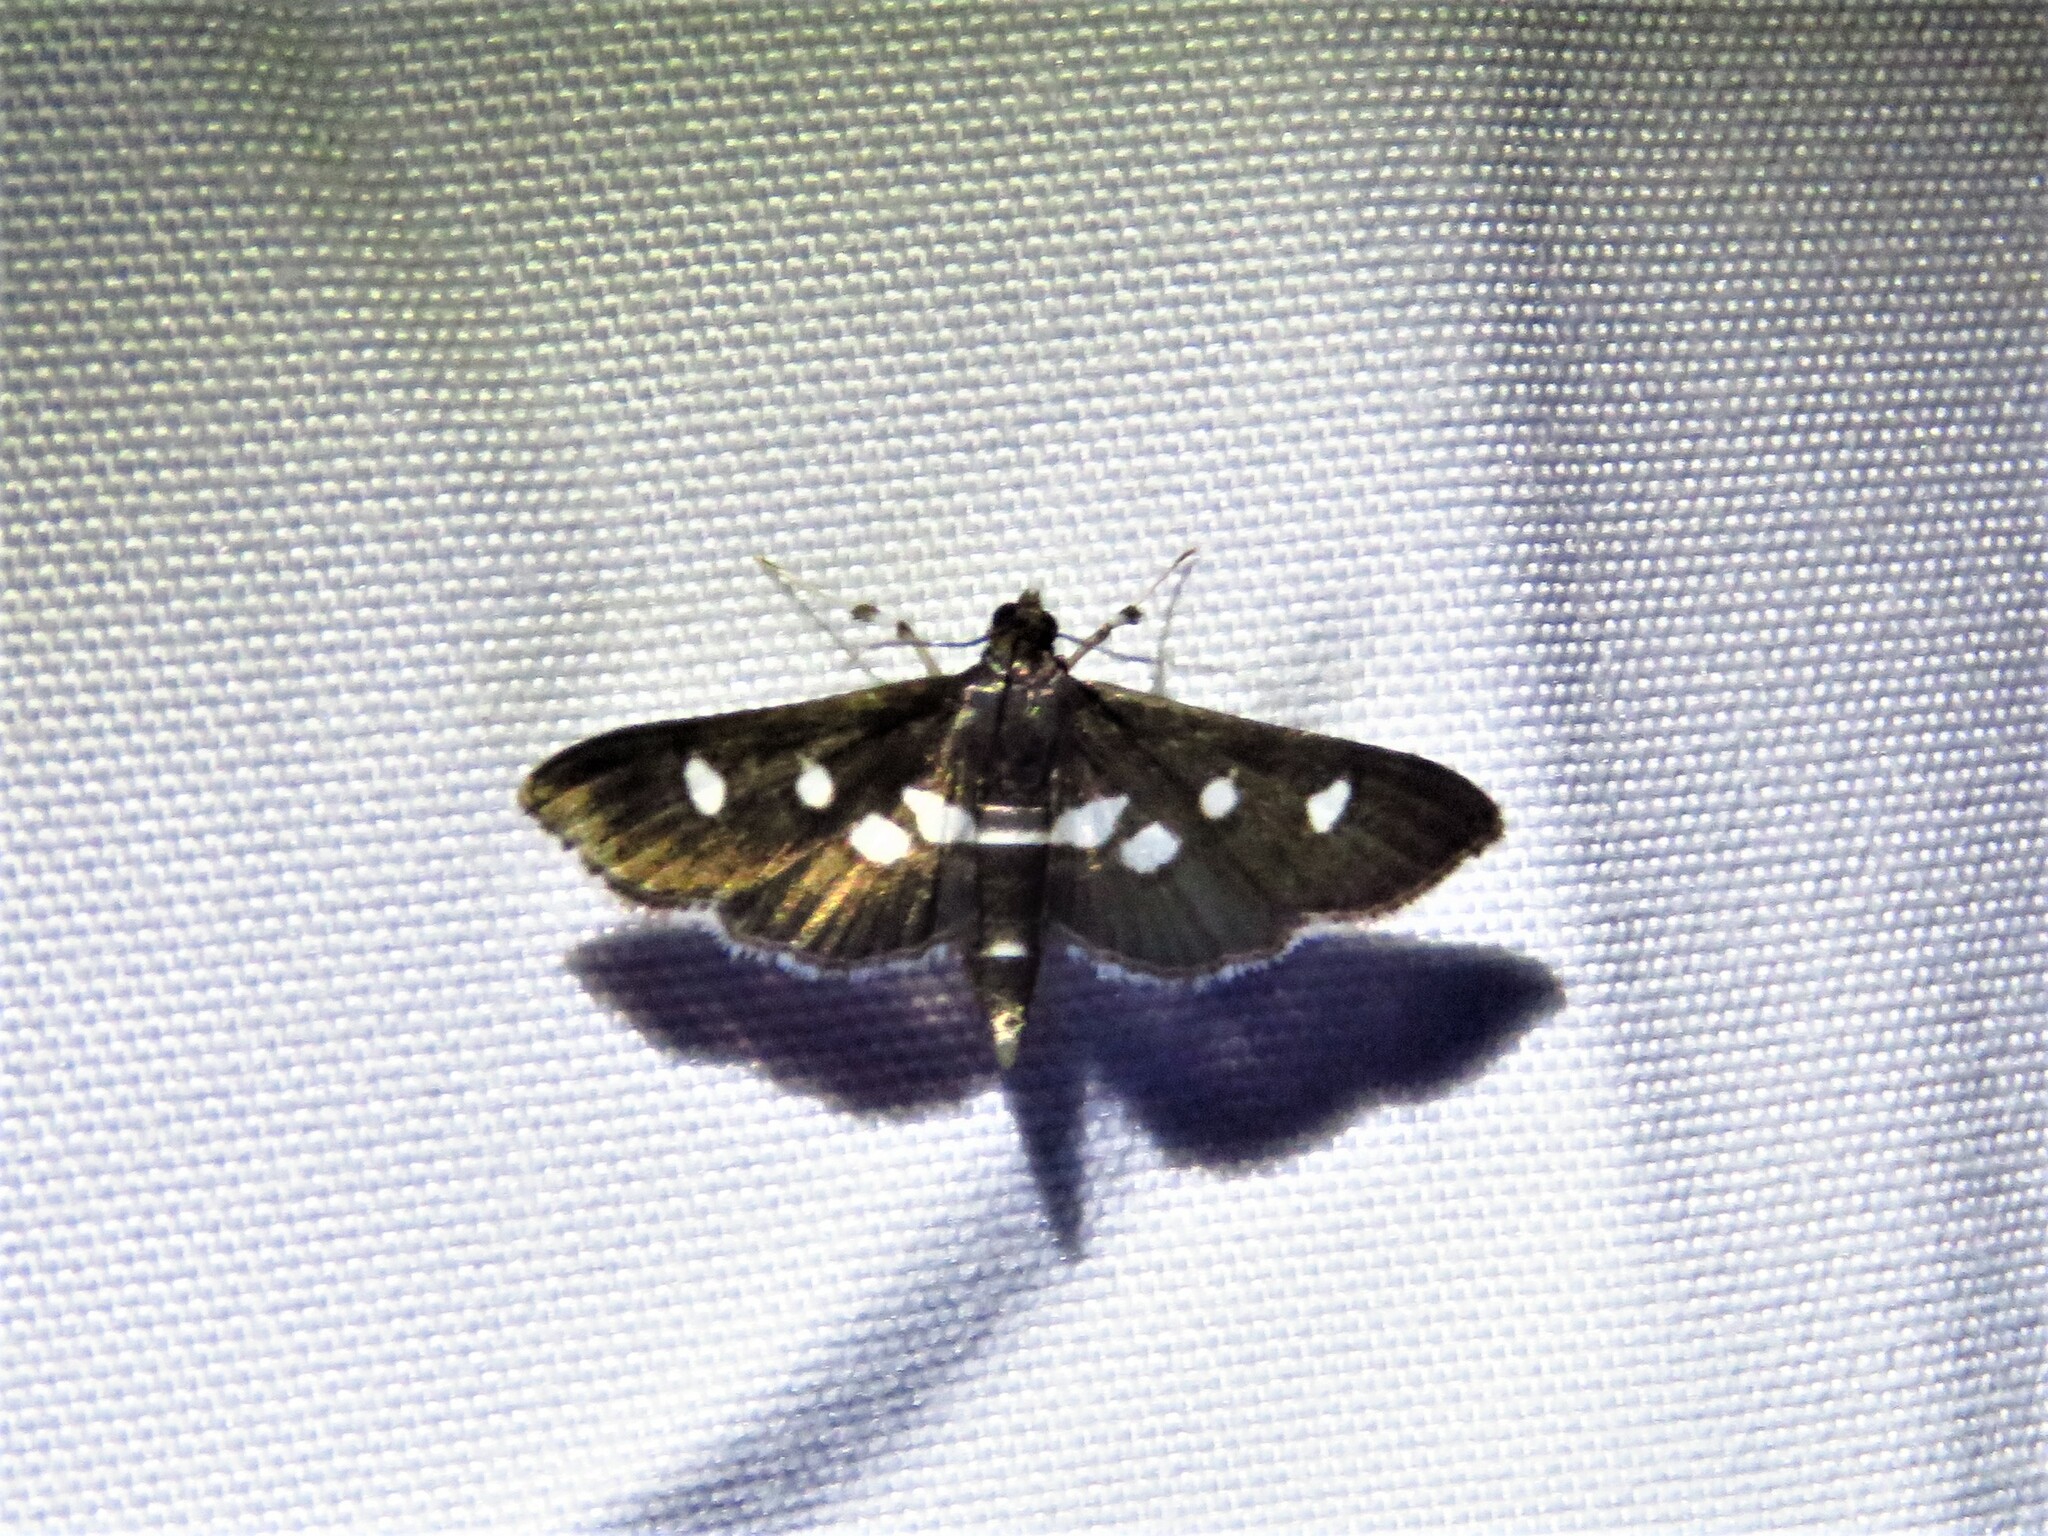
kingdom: Animalia
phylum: Arthropoda
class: Insecta
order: Lepidoptera
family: Crambidae
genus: Desmia
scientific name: Desmia
